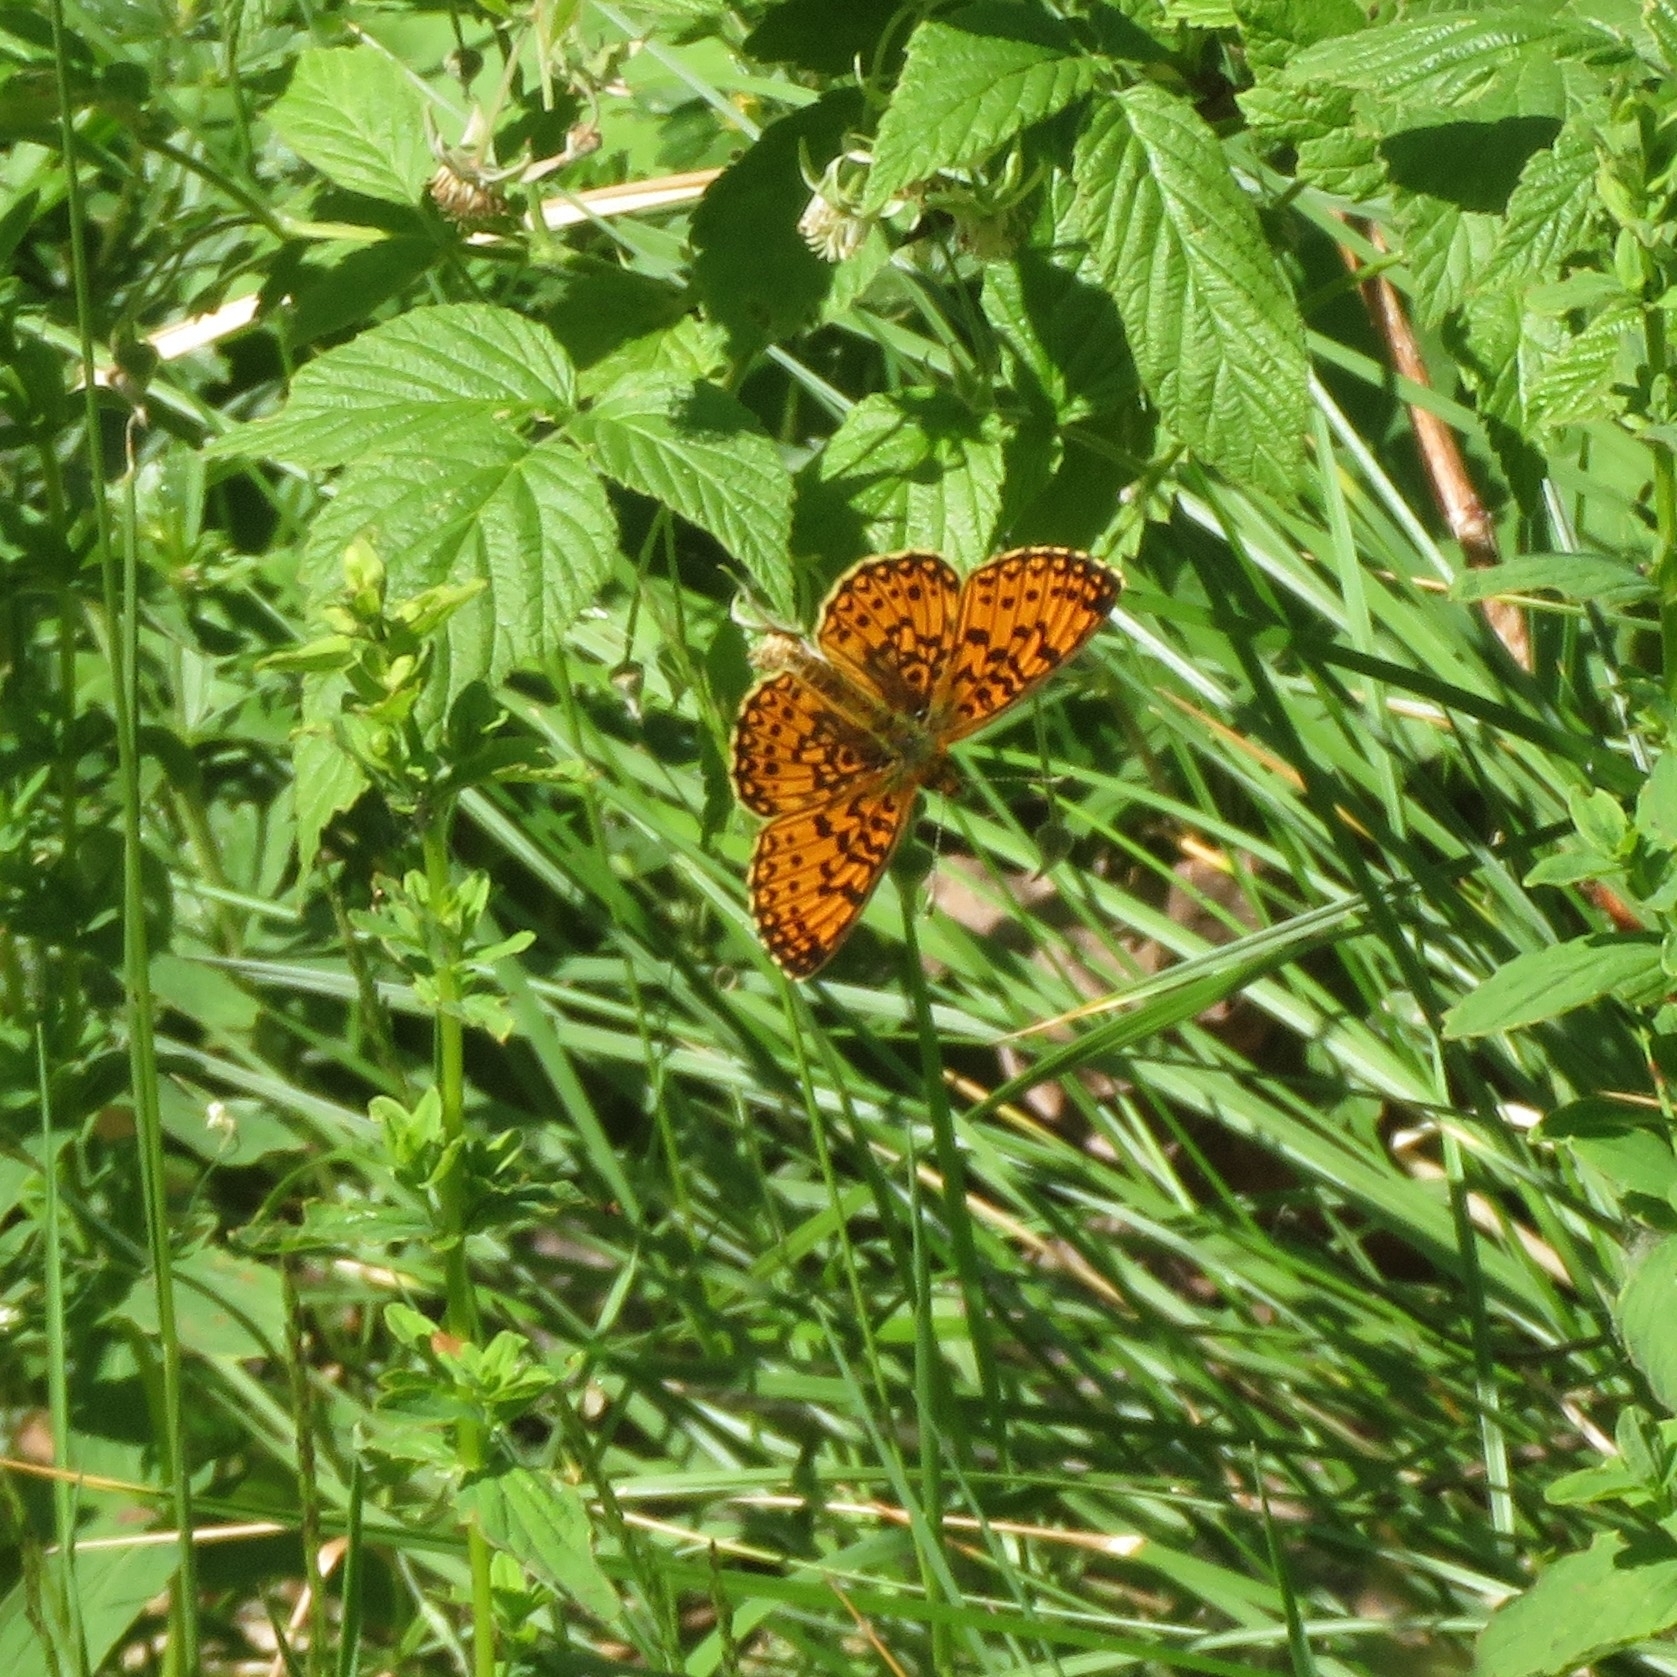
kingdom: Animalia
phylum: Arthropoda
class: Insecta
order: Lepidoptera
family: Nymphalidae
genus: Boloria
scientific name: Boloria selene
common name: Small pearl-bordered fritillary
